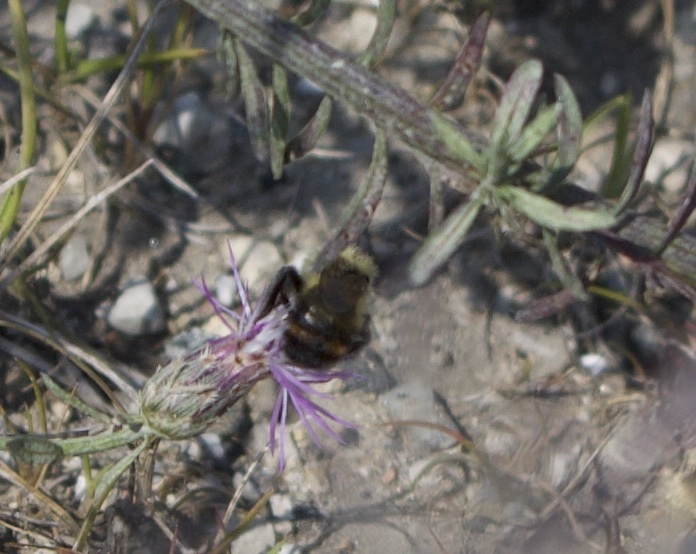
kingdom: Animalia
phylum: Arthropoda
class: Insecta
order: Hymenoptera
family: Apidae
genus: Bombus
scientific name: Bombus rufocinctus
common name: Red-belted bumble bee
